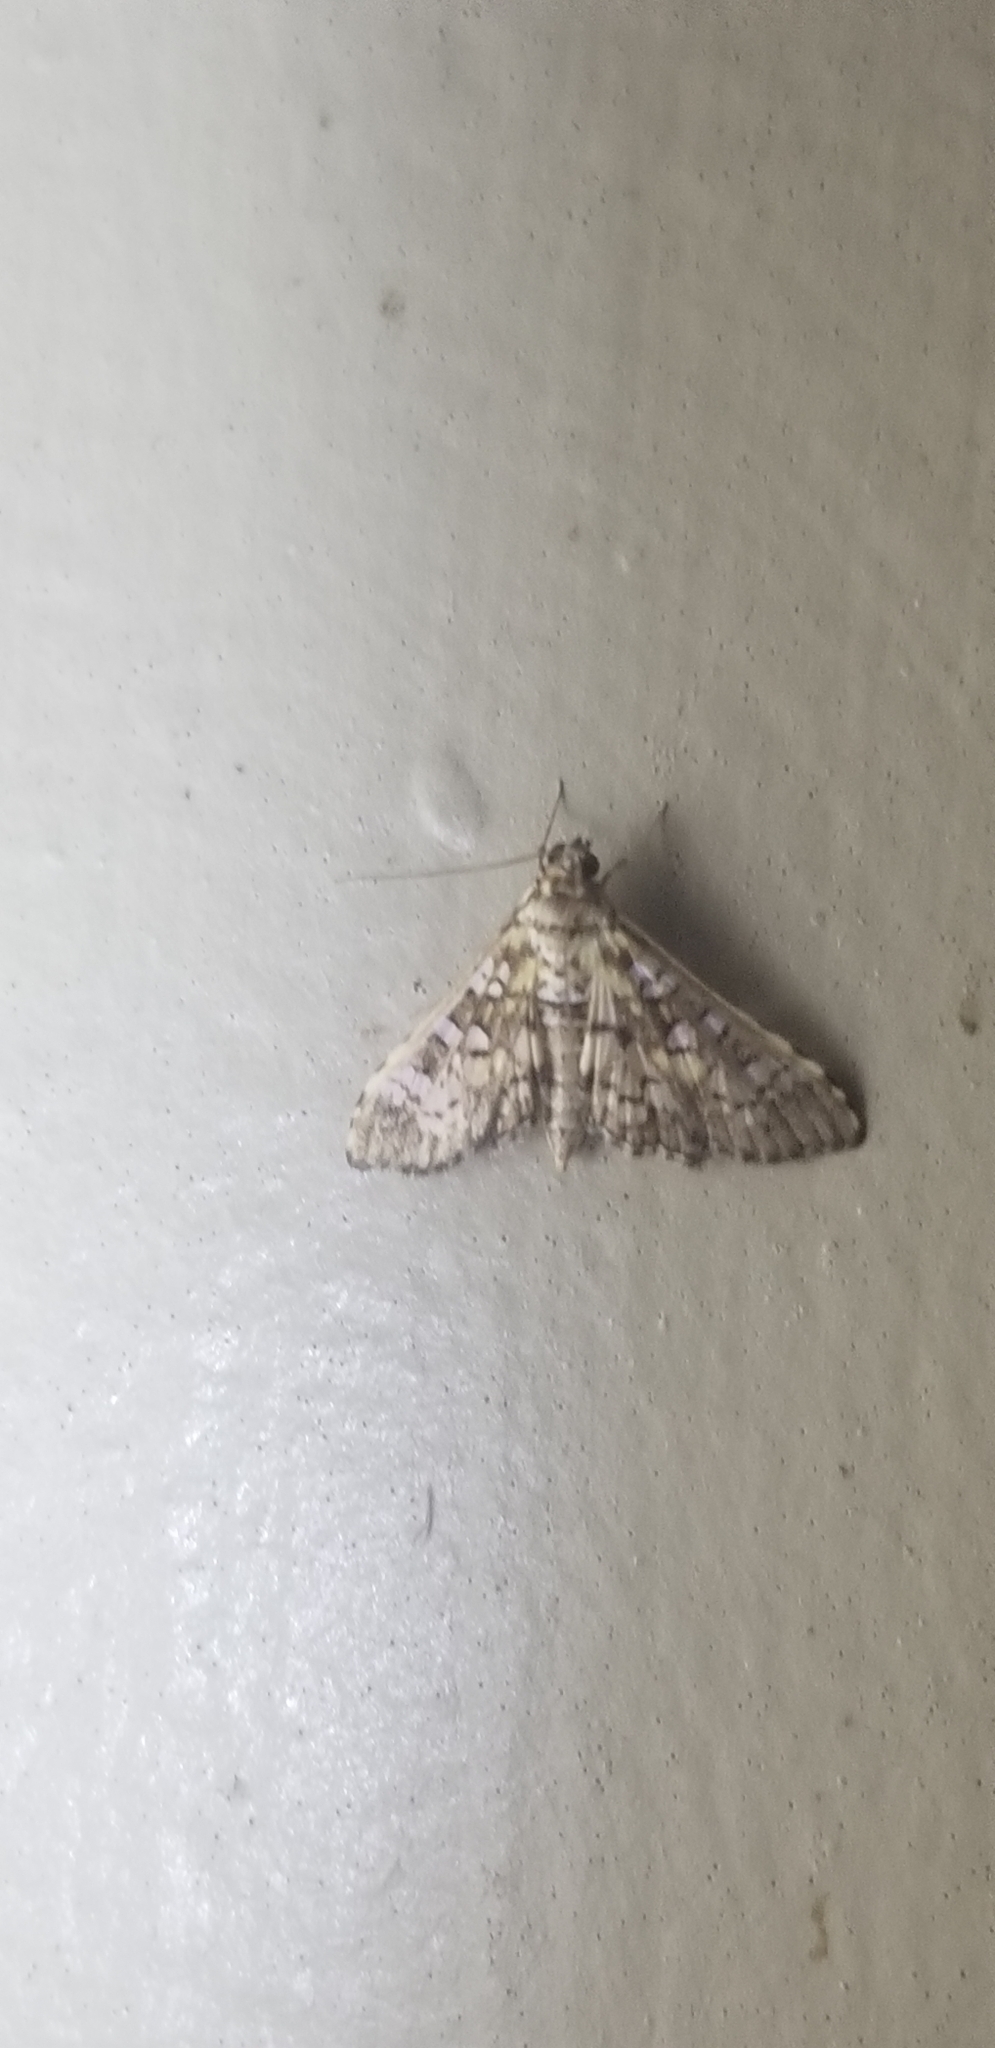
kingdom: Animalia
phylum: Arthropoda
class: Insecta
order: Lepidoptera
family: Crambidae
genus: Samea
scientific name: Samea ecclesialis
